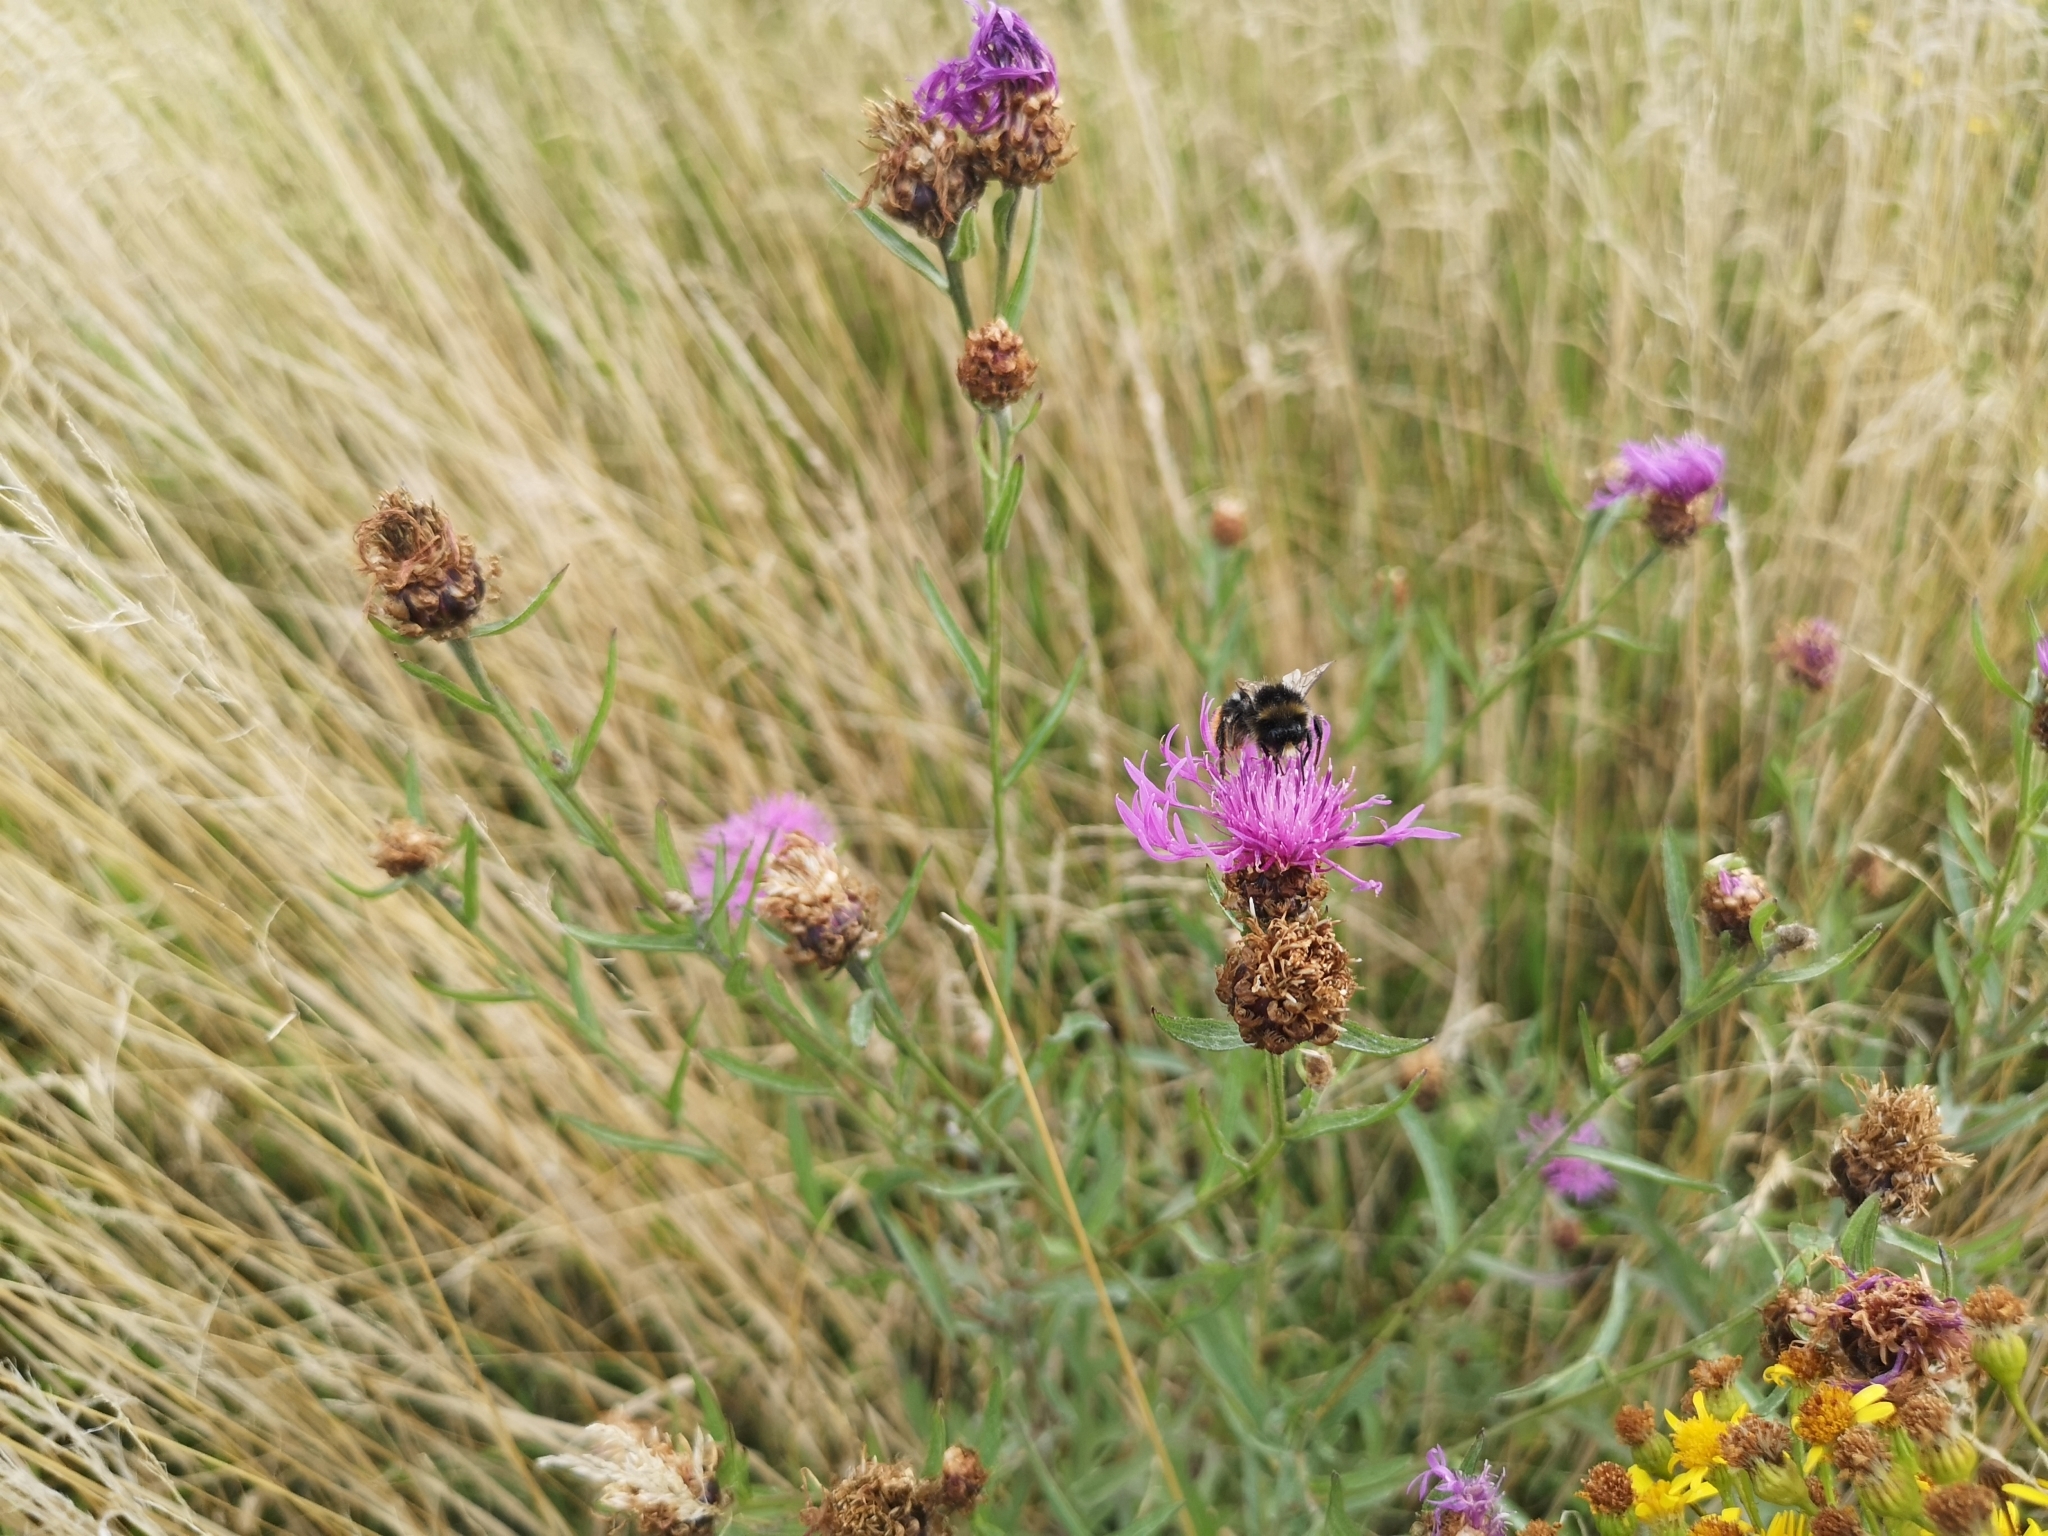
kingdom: Plantae
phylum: Tracheophyta
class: Magnoliopsida
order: Asterales
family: Asteraceae
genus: Centaurea
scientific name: Centaurea jacea
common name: Brown knapweed
